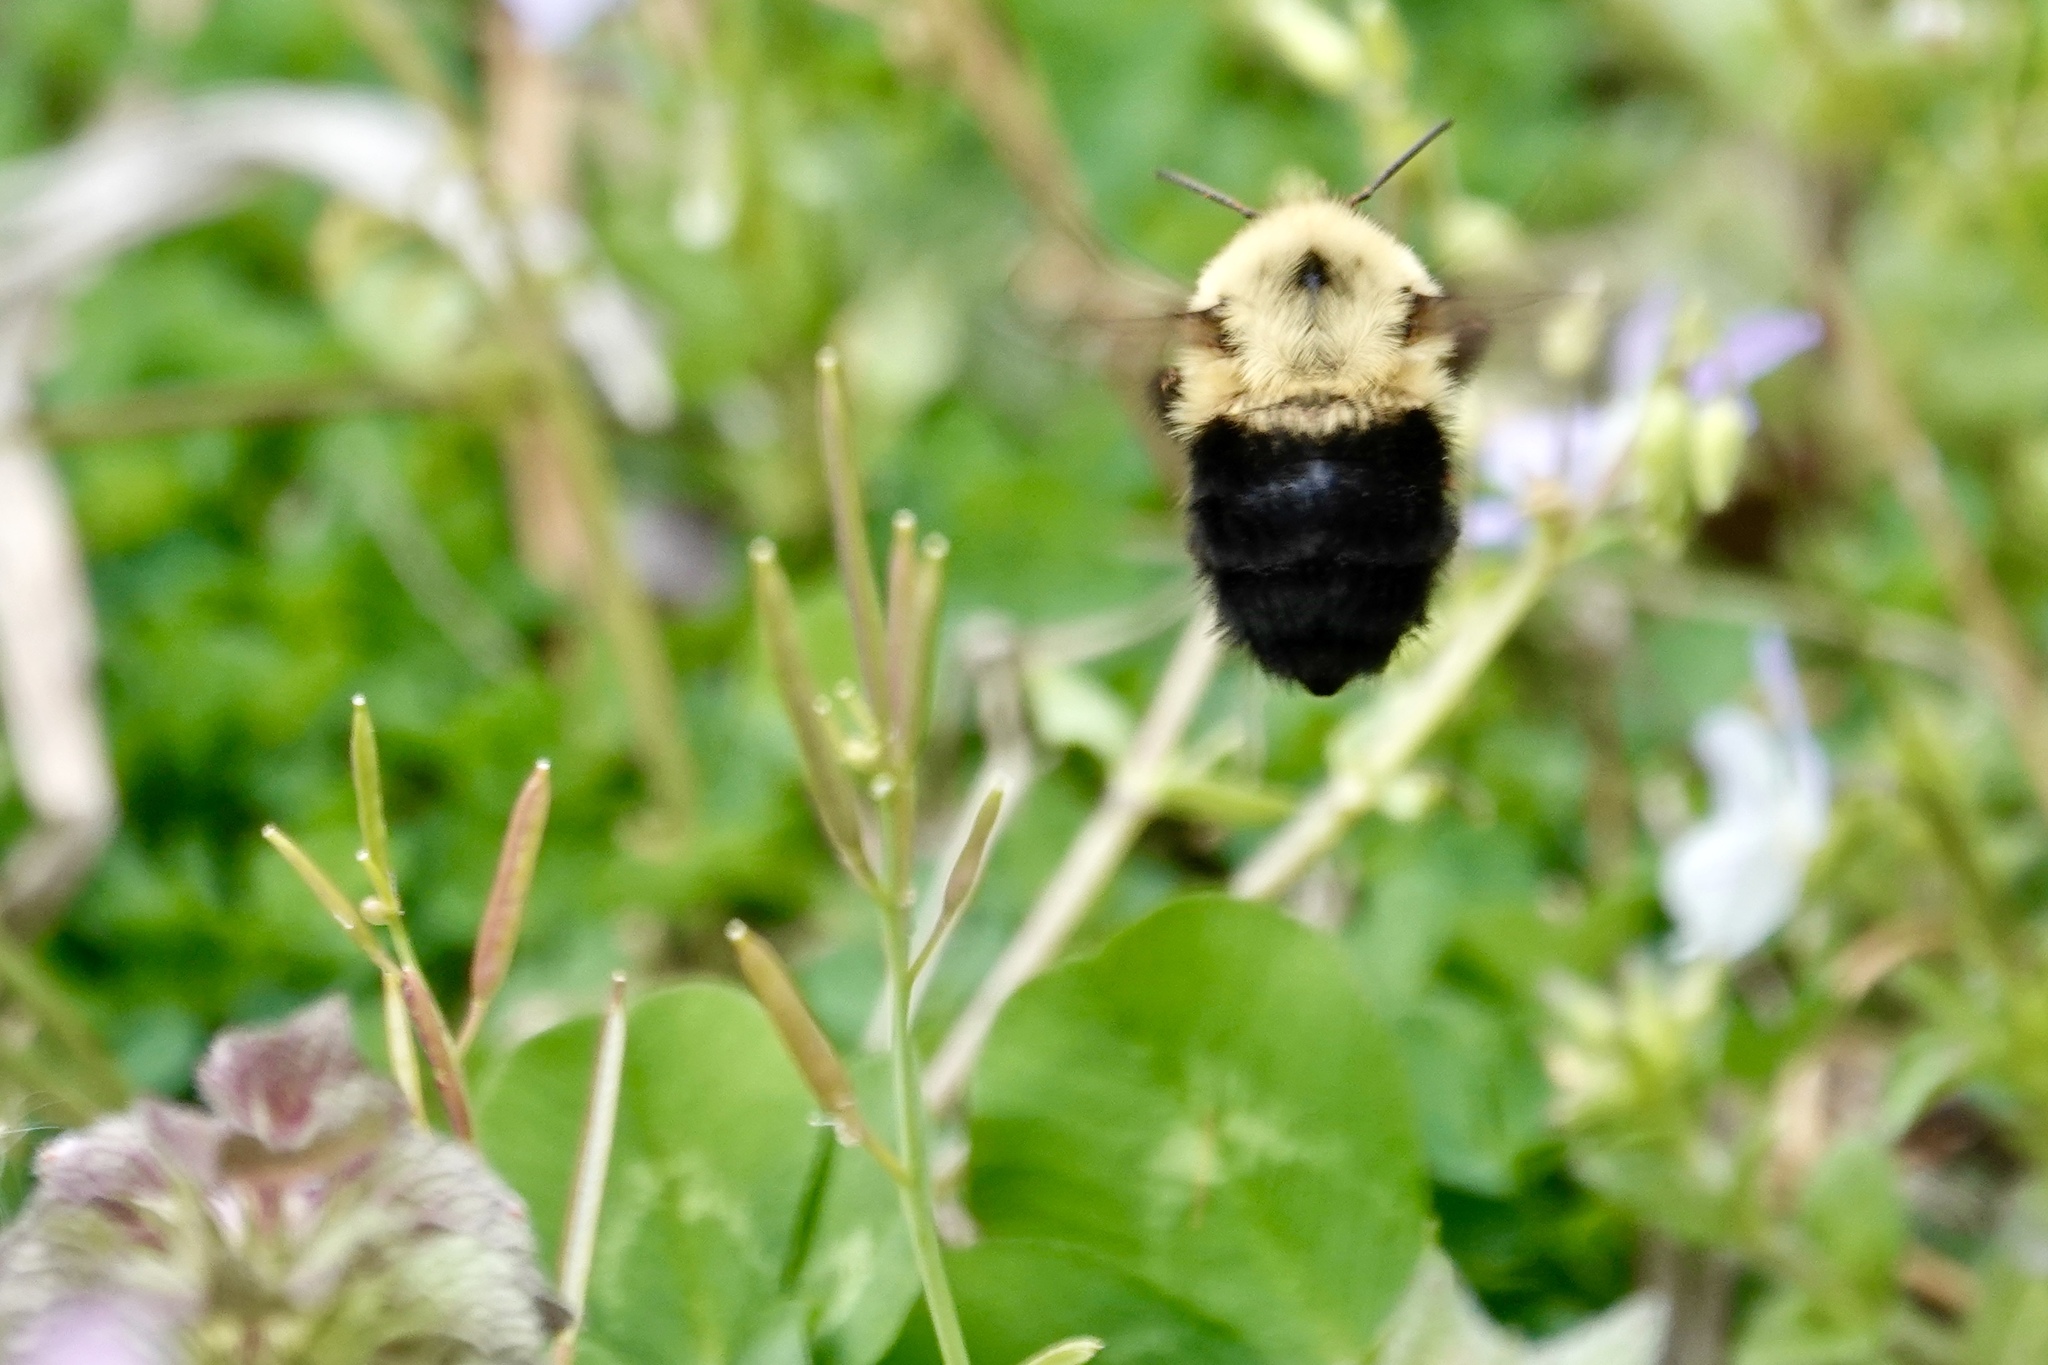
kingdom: Animalia
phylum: Arthropoda
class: Insecta
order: Hymenoptera
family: Apidae
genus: Bombus
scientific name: Bombus bimaculatus
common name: Two-spotted bumble bee
